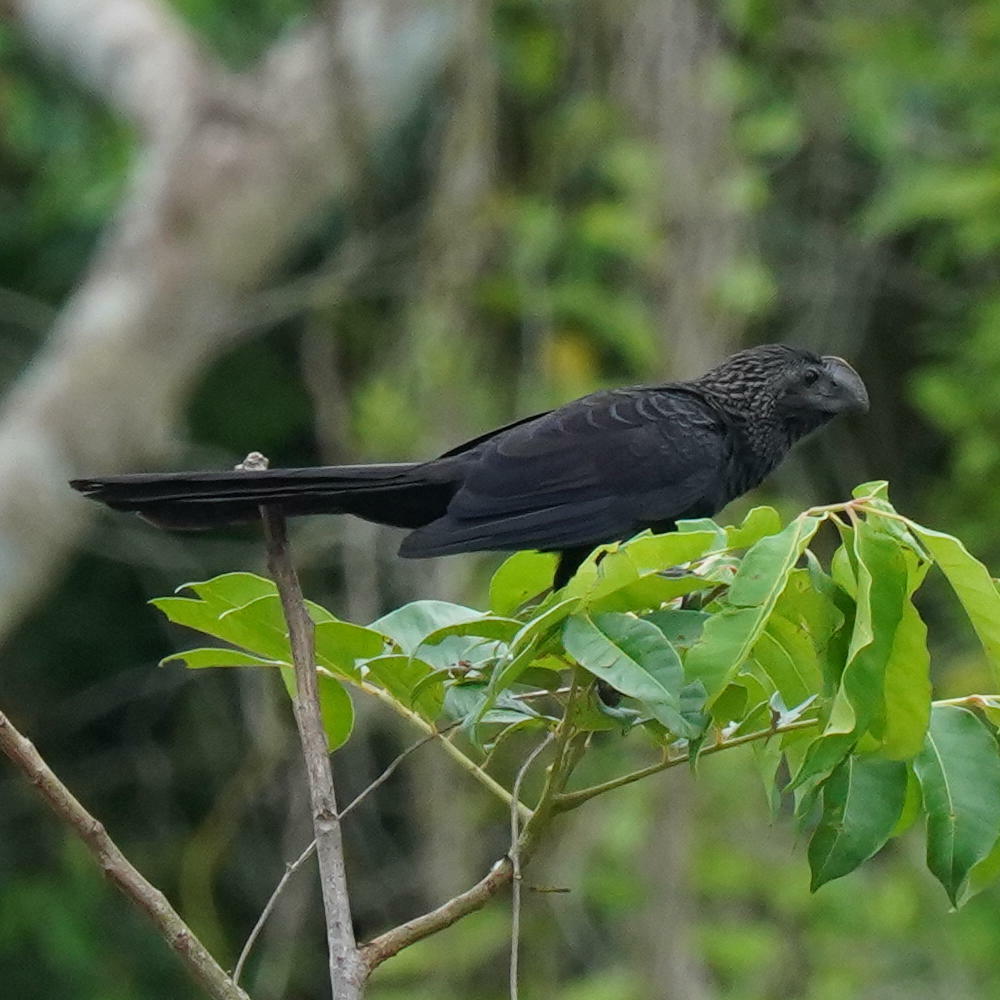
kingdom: Animalia
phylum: Chordata
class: Aves
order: Cuculiformes
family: Cuculidae
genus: Crotophaga
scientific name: Crotophaga ani
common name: Smooth-billed ani
